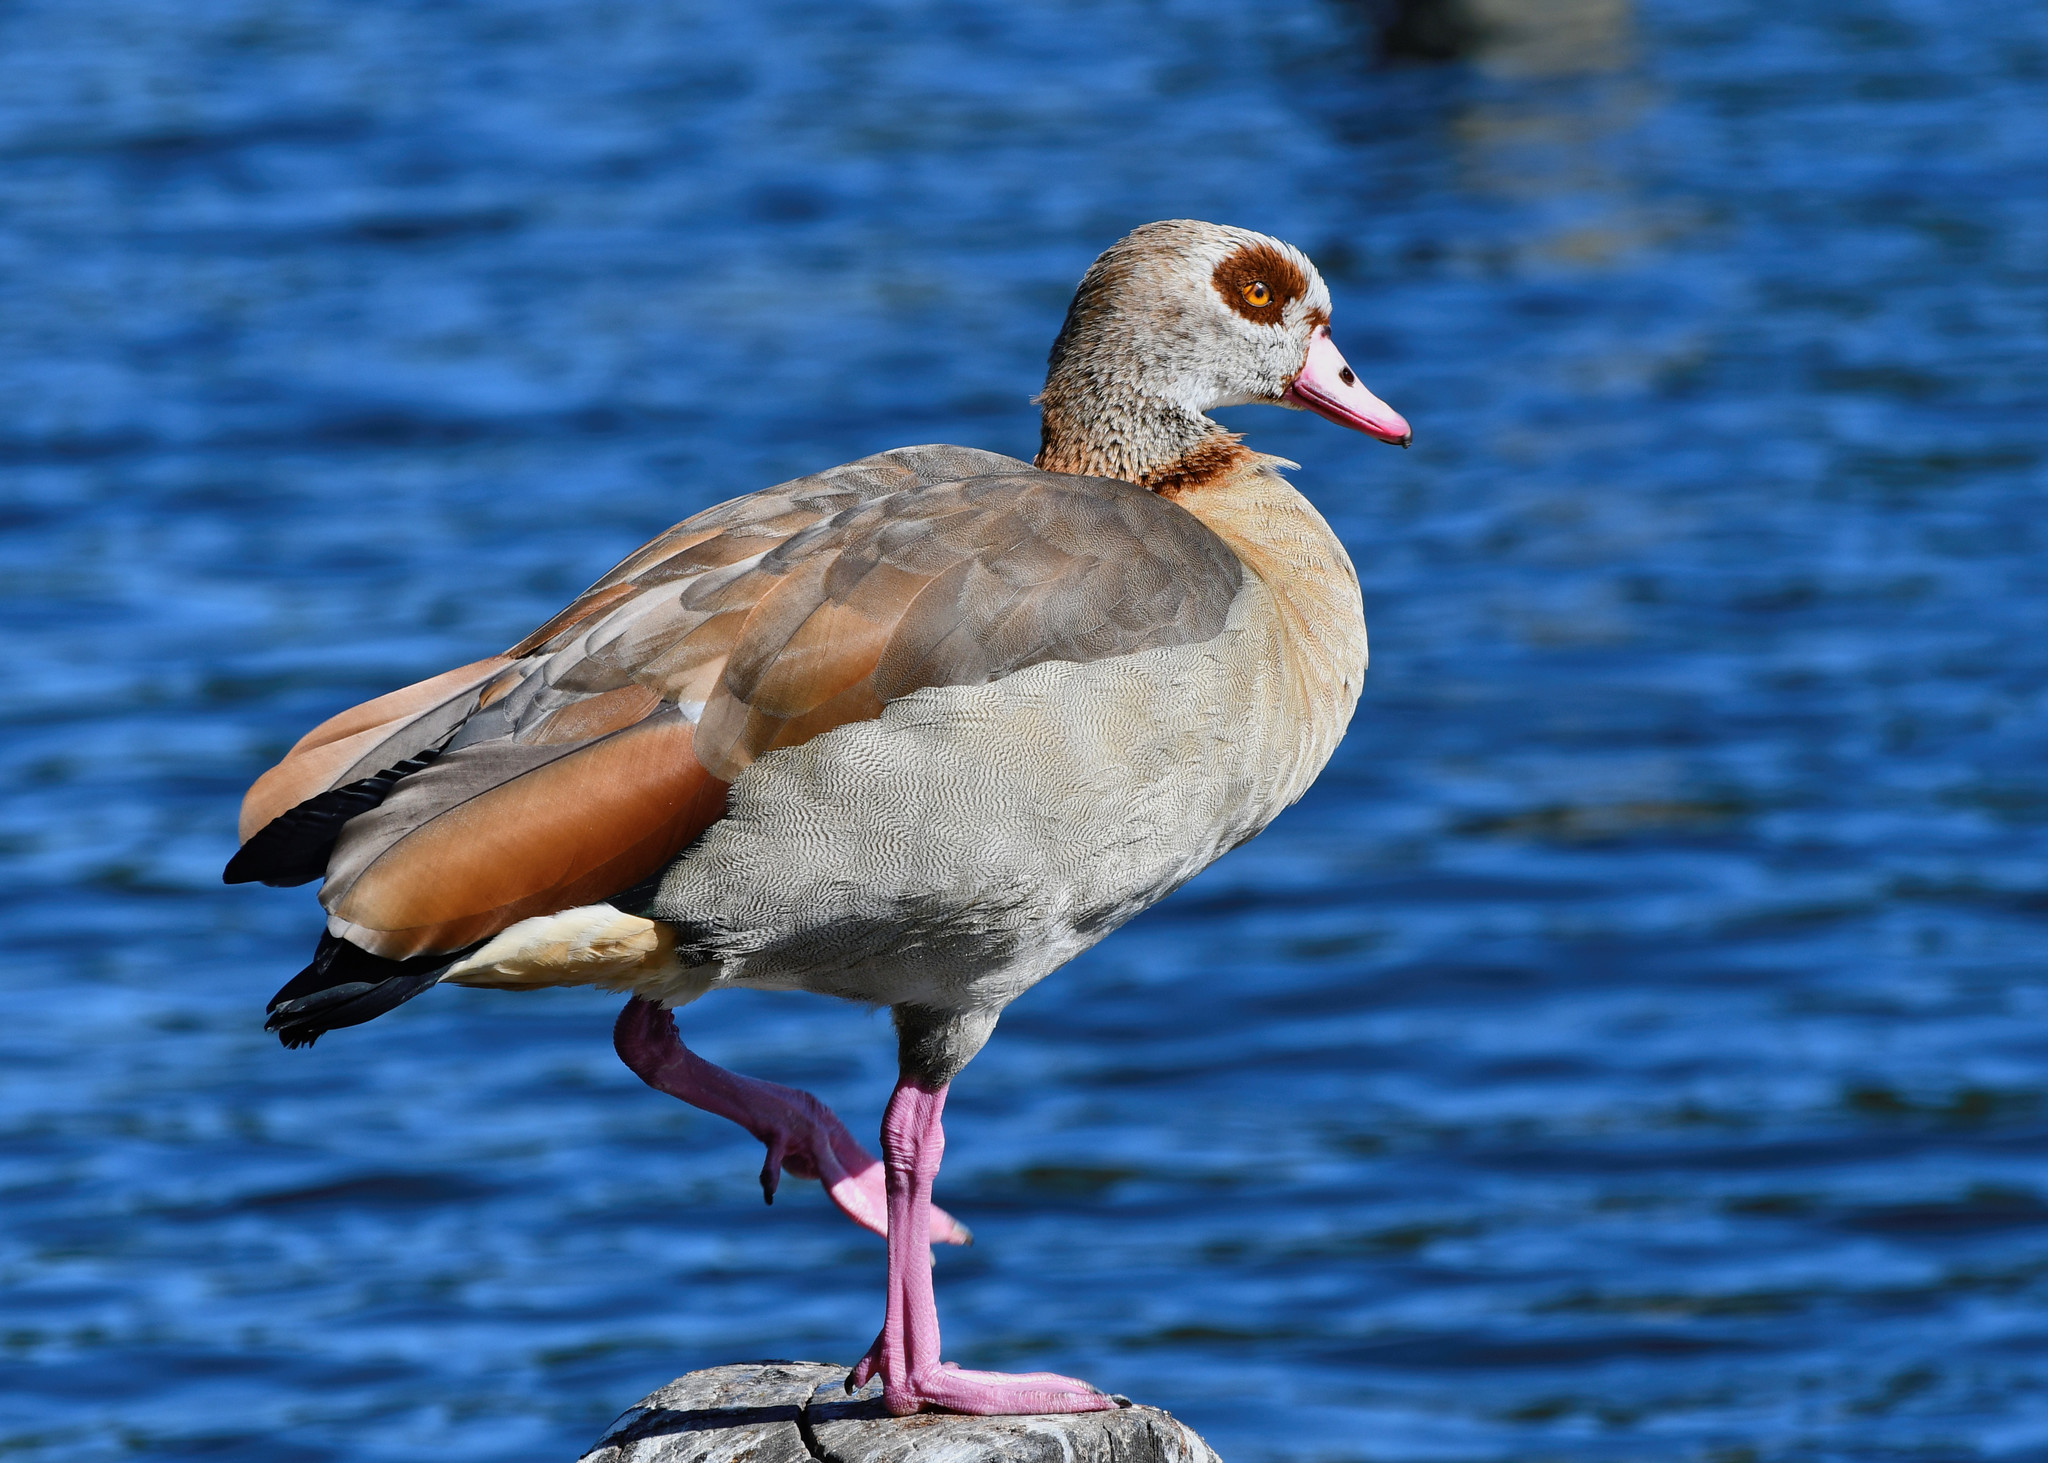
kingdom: Animalia
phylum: Chordata
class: Aves
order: Anseriformes
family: Anatidae
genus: Alopochen
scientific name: Alopochen aegyptiaca
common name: Egyptian goose
